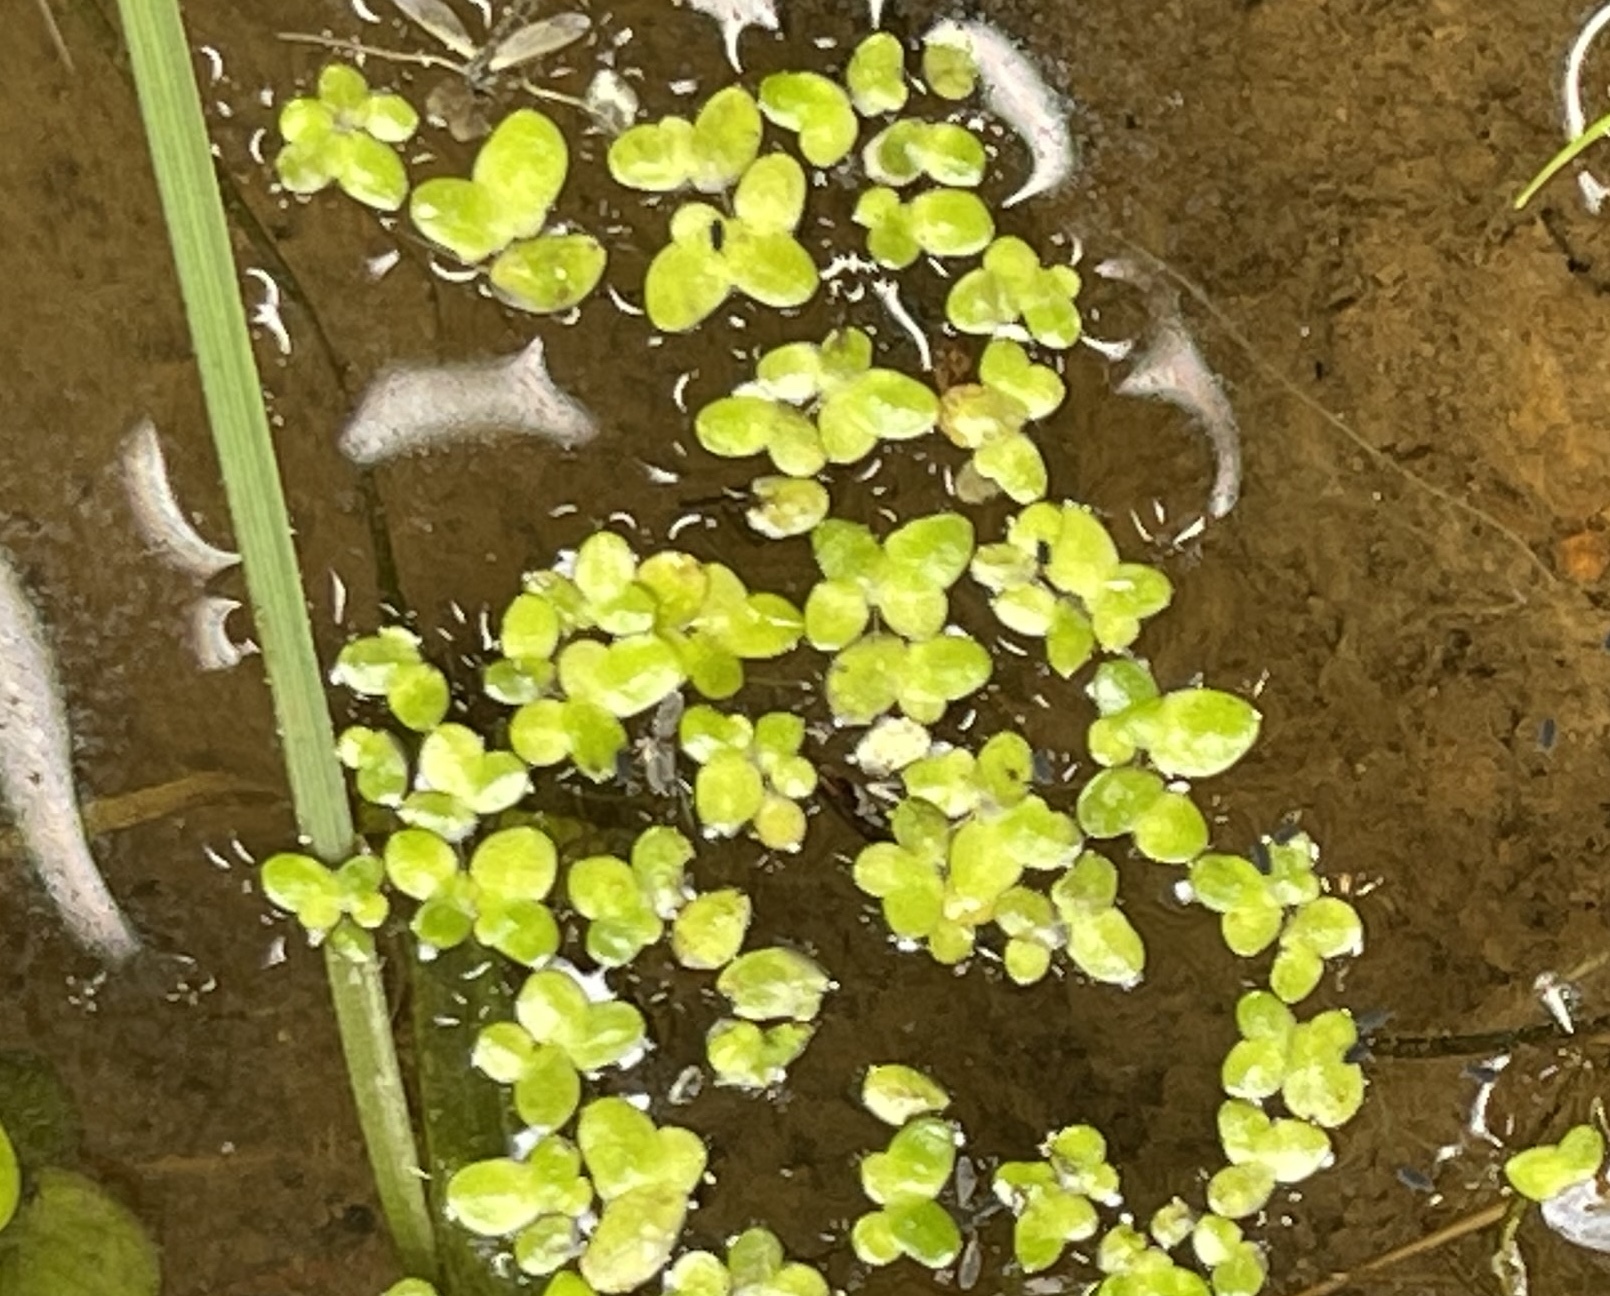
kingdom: Plantae
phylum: Tracheophyta
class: Liliopsida
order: Alismatales
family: Araceae
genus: Lemna
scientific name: Lemna minor
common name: Common duckweed
